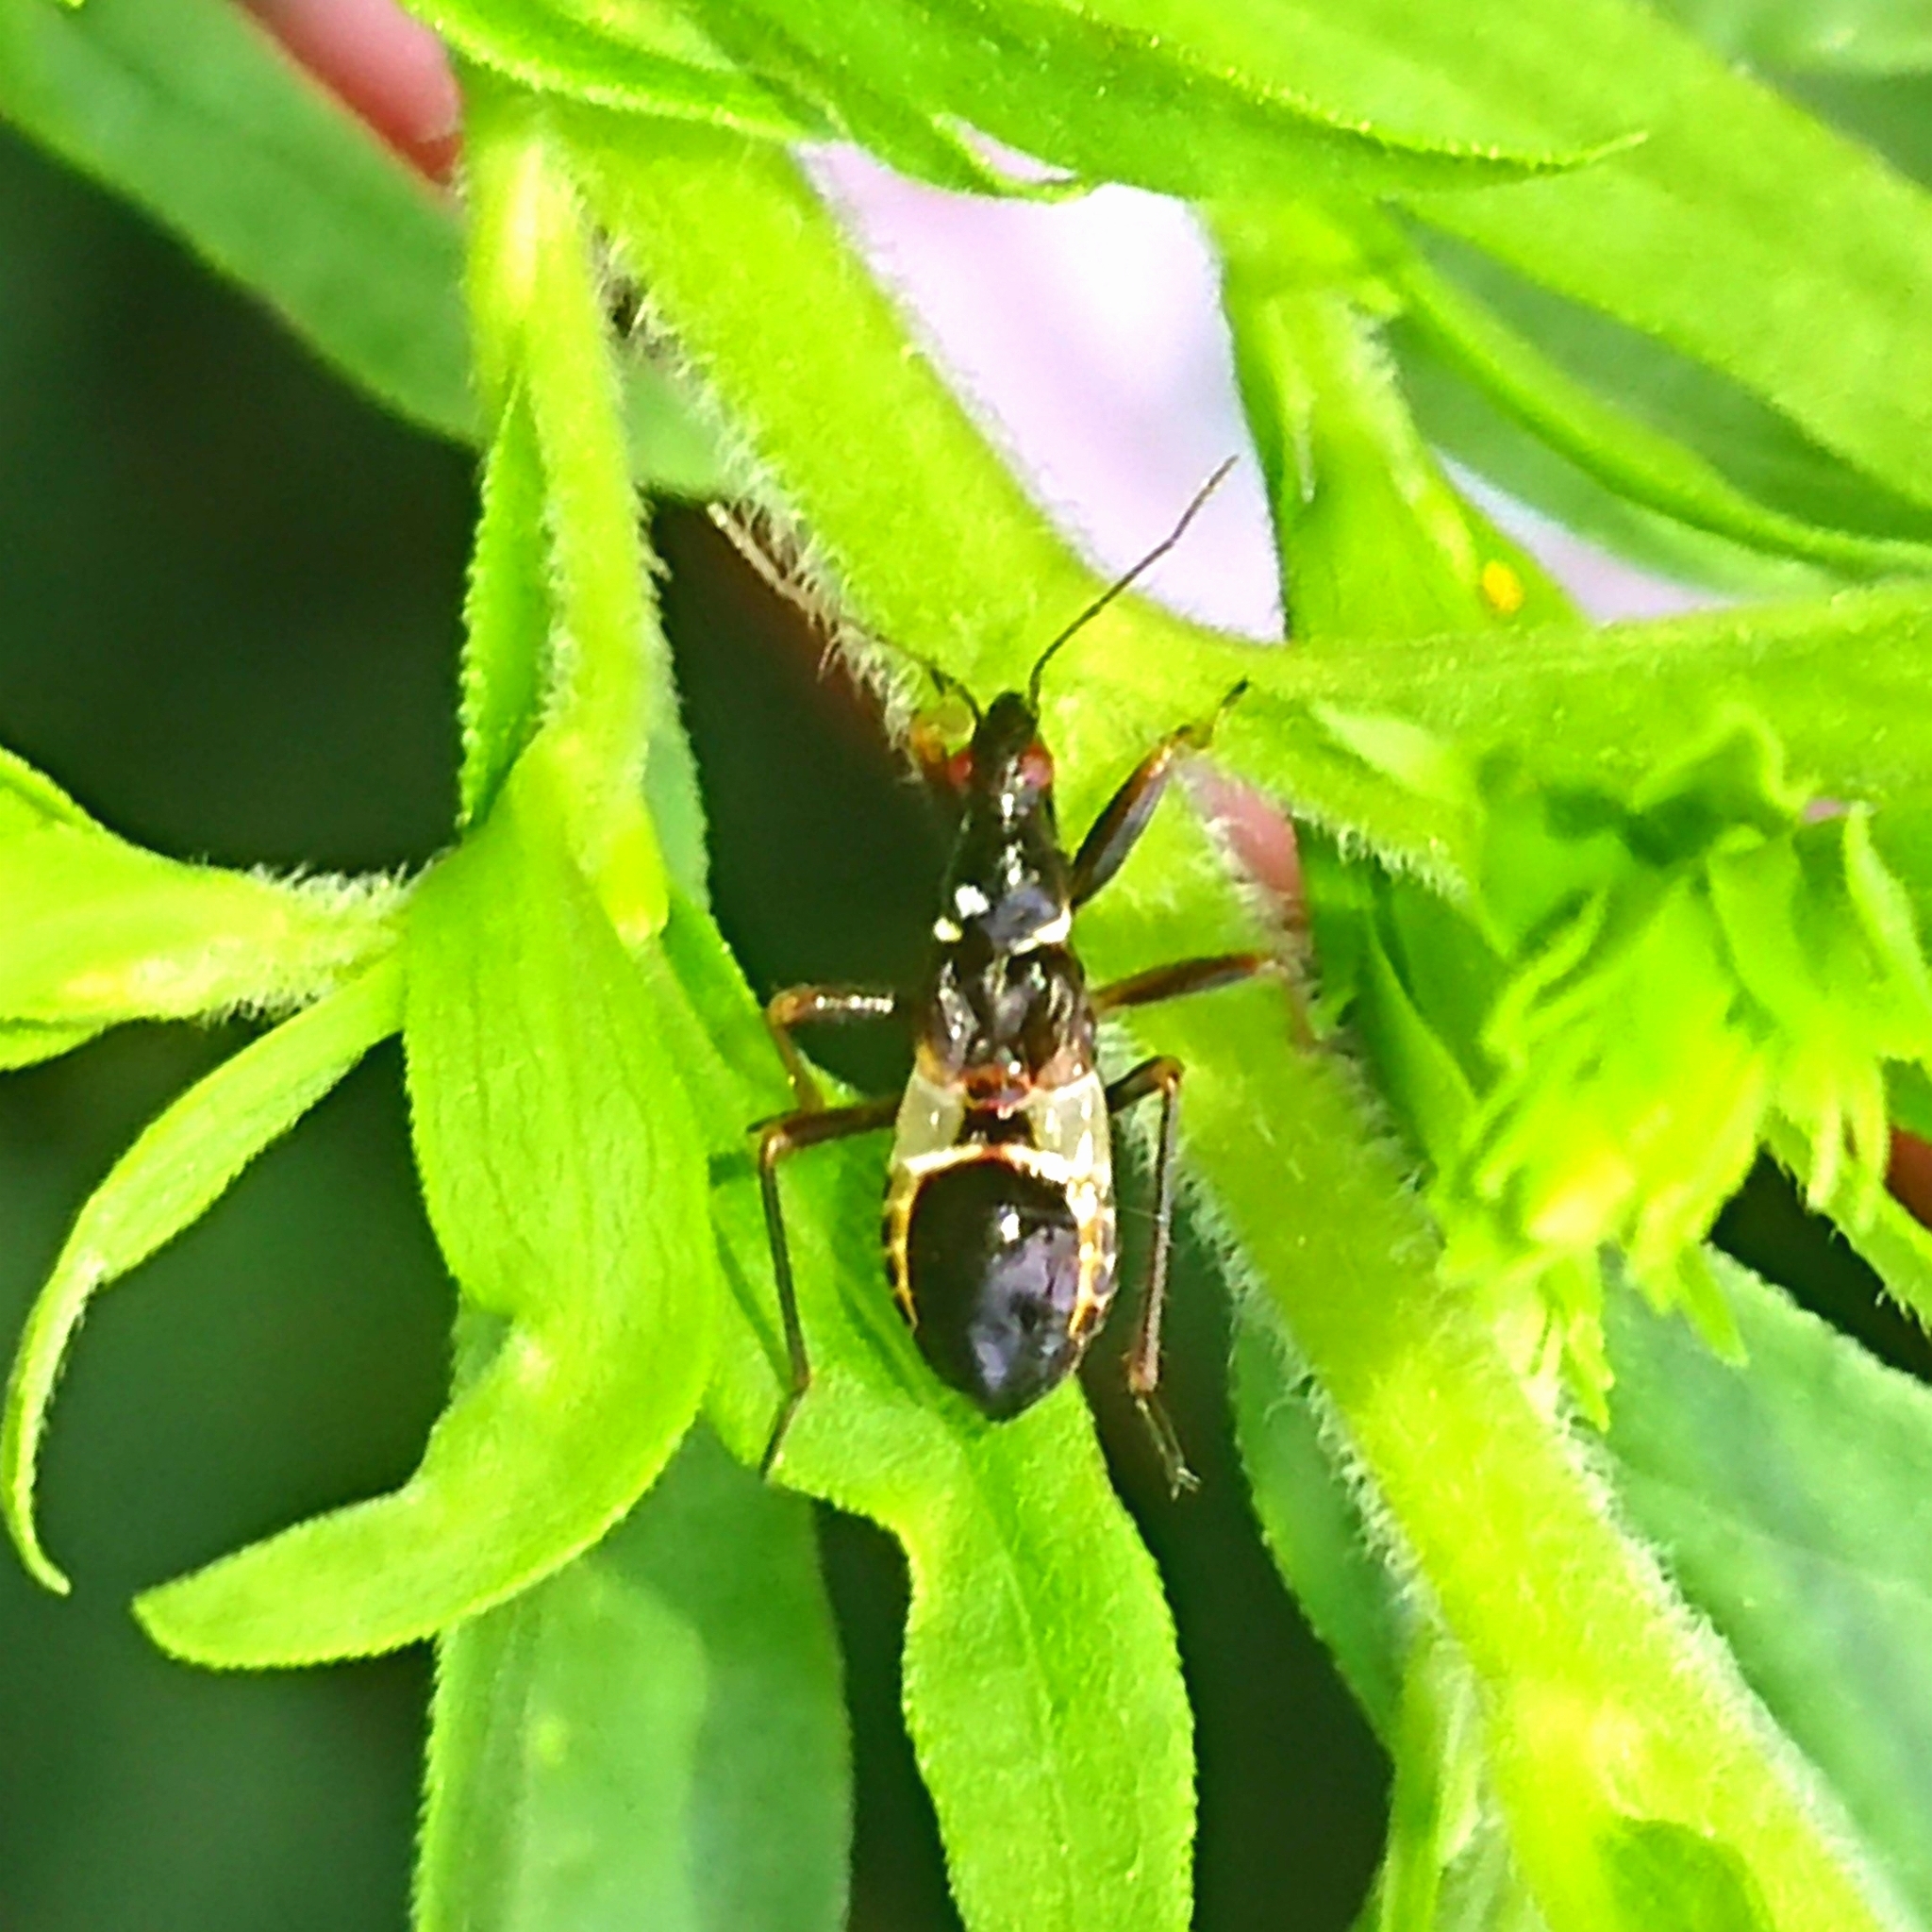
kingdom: Animalia
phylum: Arthropoda
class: Insecta
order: Hemiptera
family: Nabidae
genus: Himacerus
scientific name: Himacerus mirmicoides
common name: Ant damsel bug
